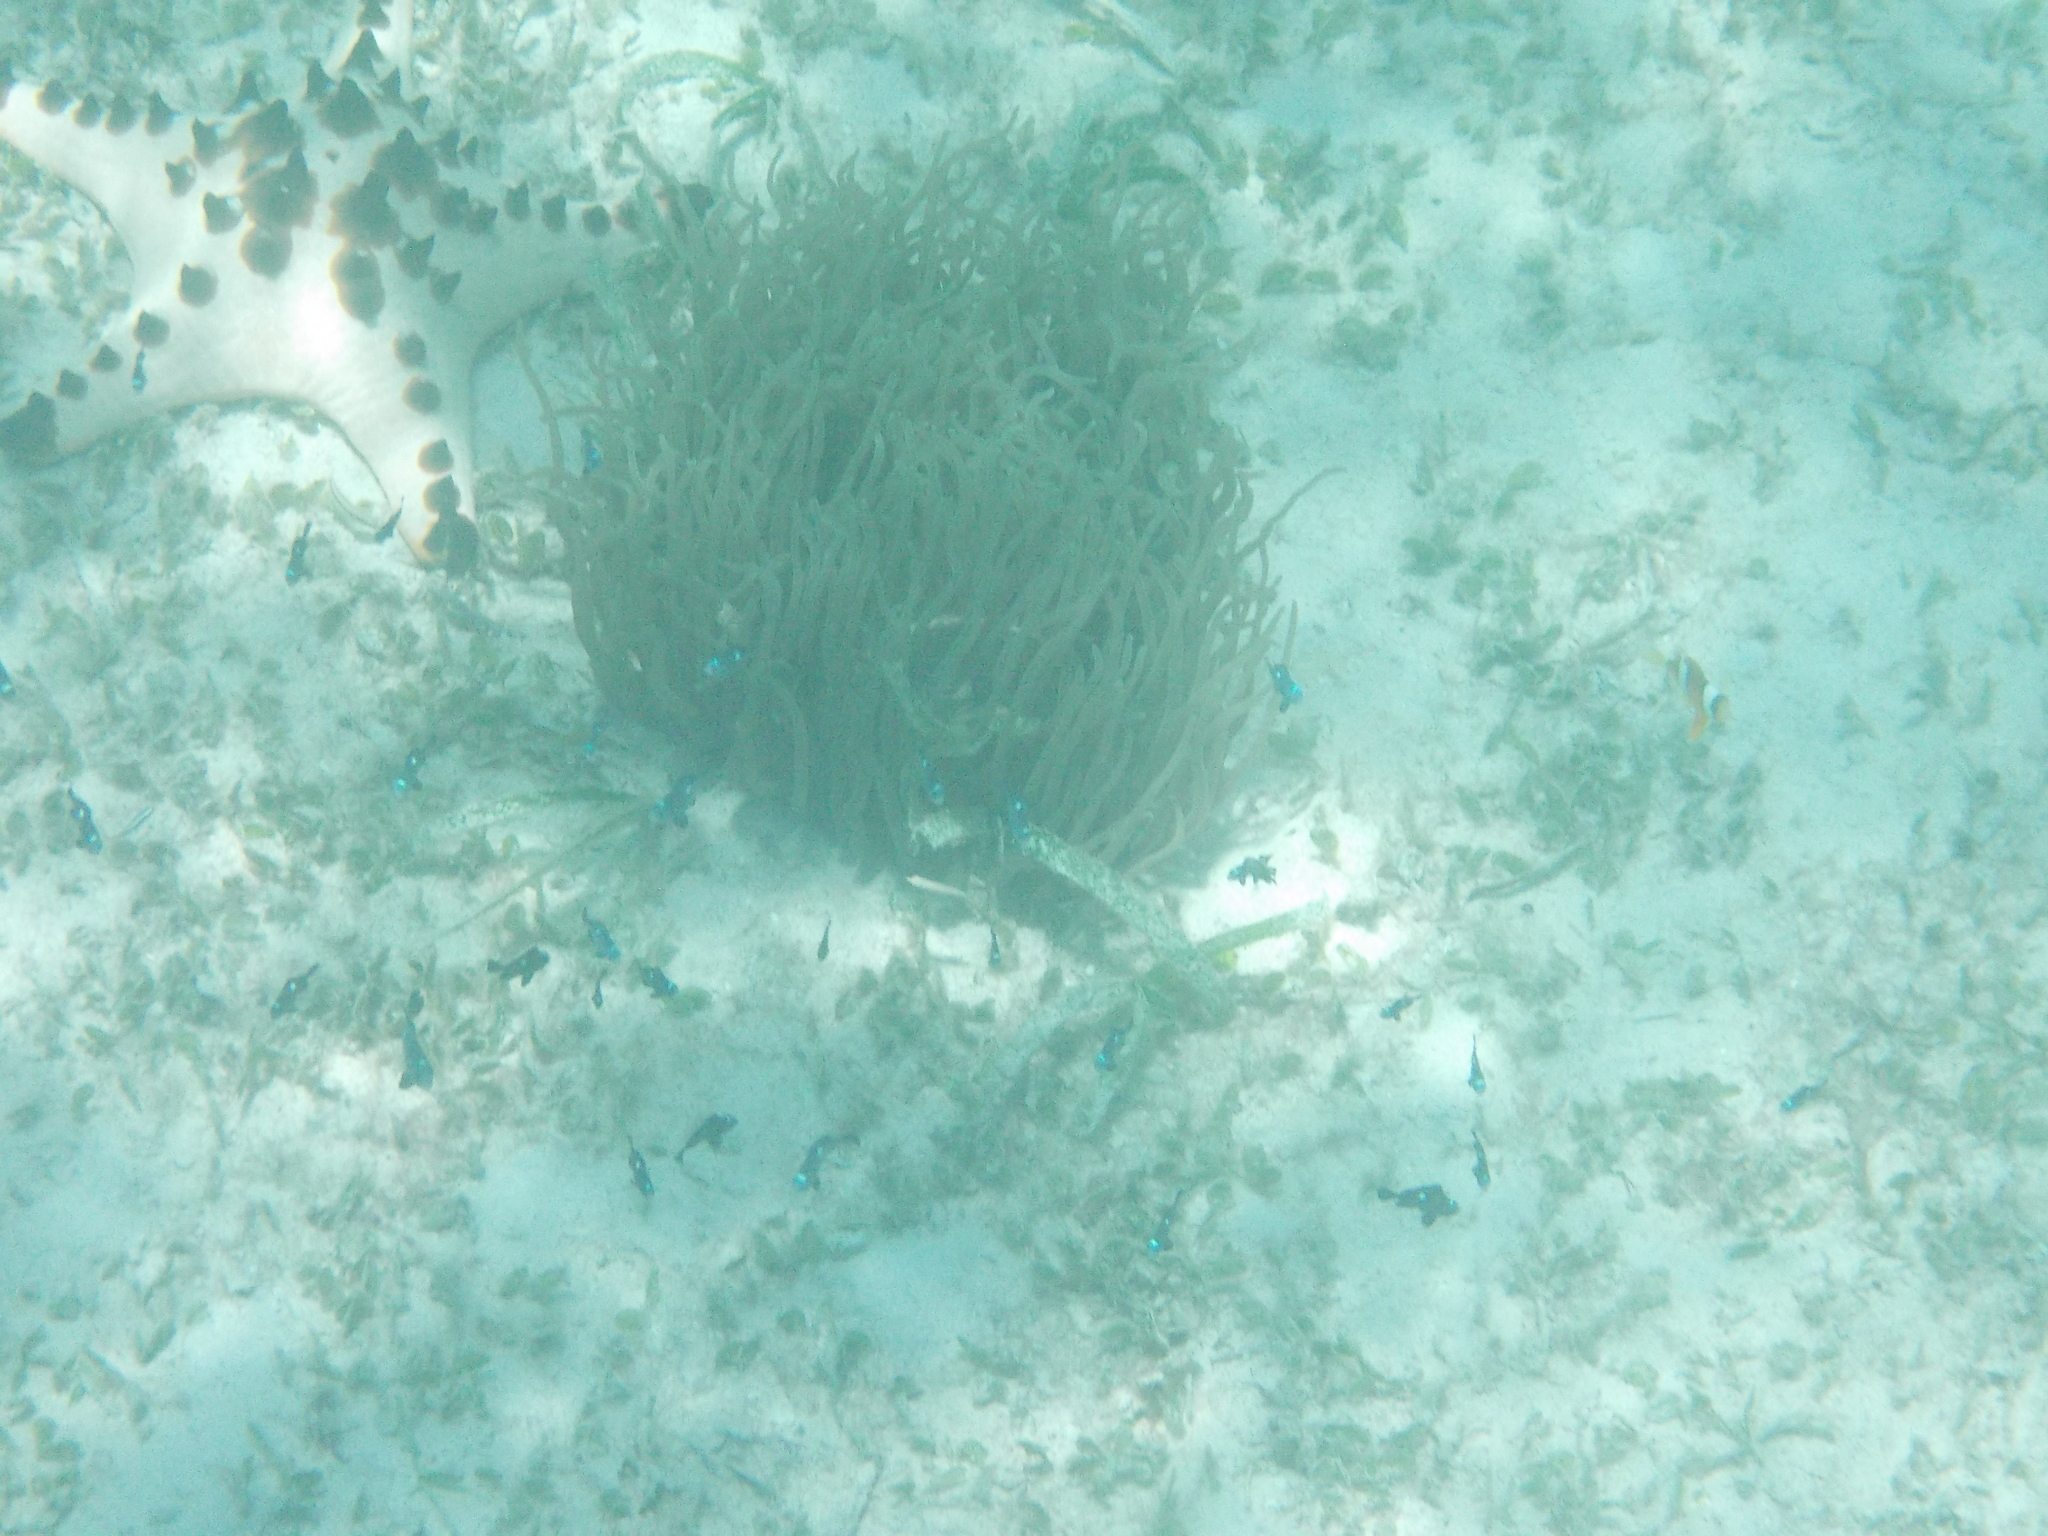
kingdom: Animalia
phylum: Chordata
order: Perciformes
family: Pomacentridae
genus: Dascyllus
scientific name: Dascyllus trimaculatus
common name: Threespot dascyllus
